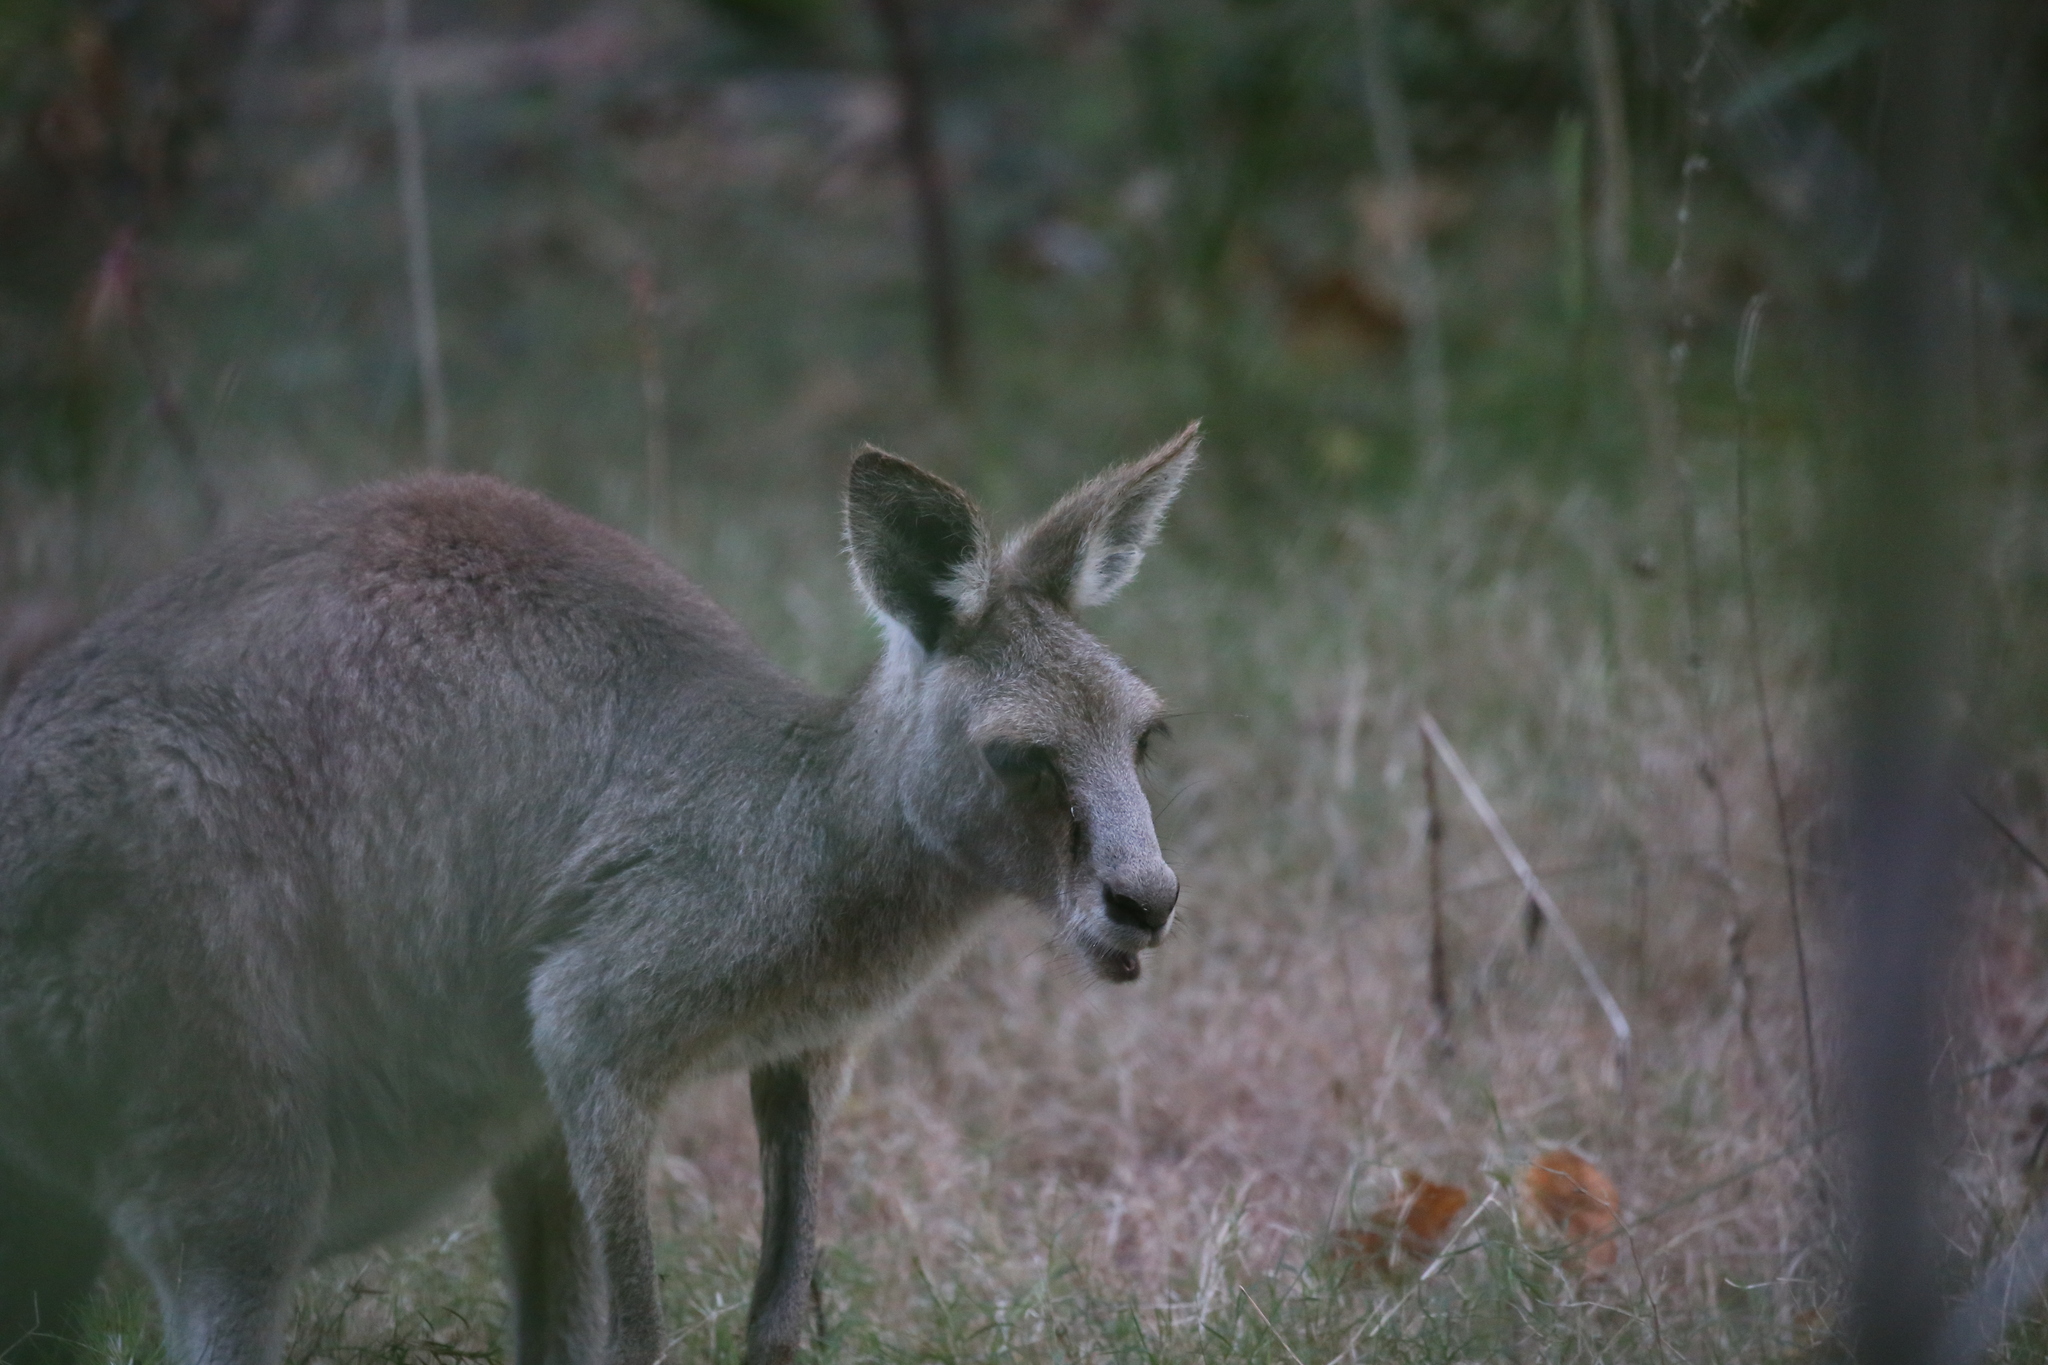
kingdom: Animalia
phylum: Chordata
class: Mammalia
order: Diprotodontia
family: Macropodidae
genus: Macropus
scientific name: Macropus giganteus
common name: Eastern grey kangaroo
